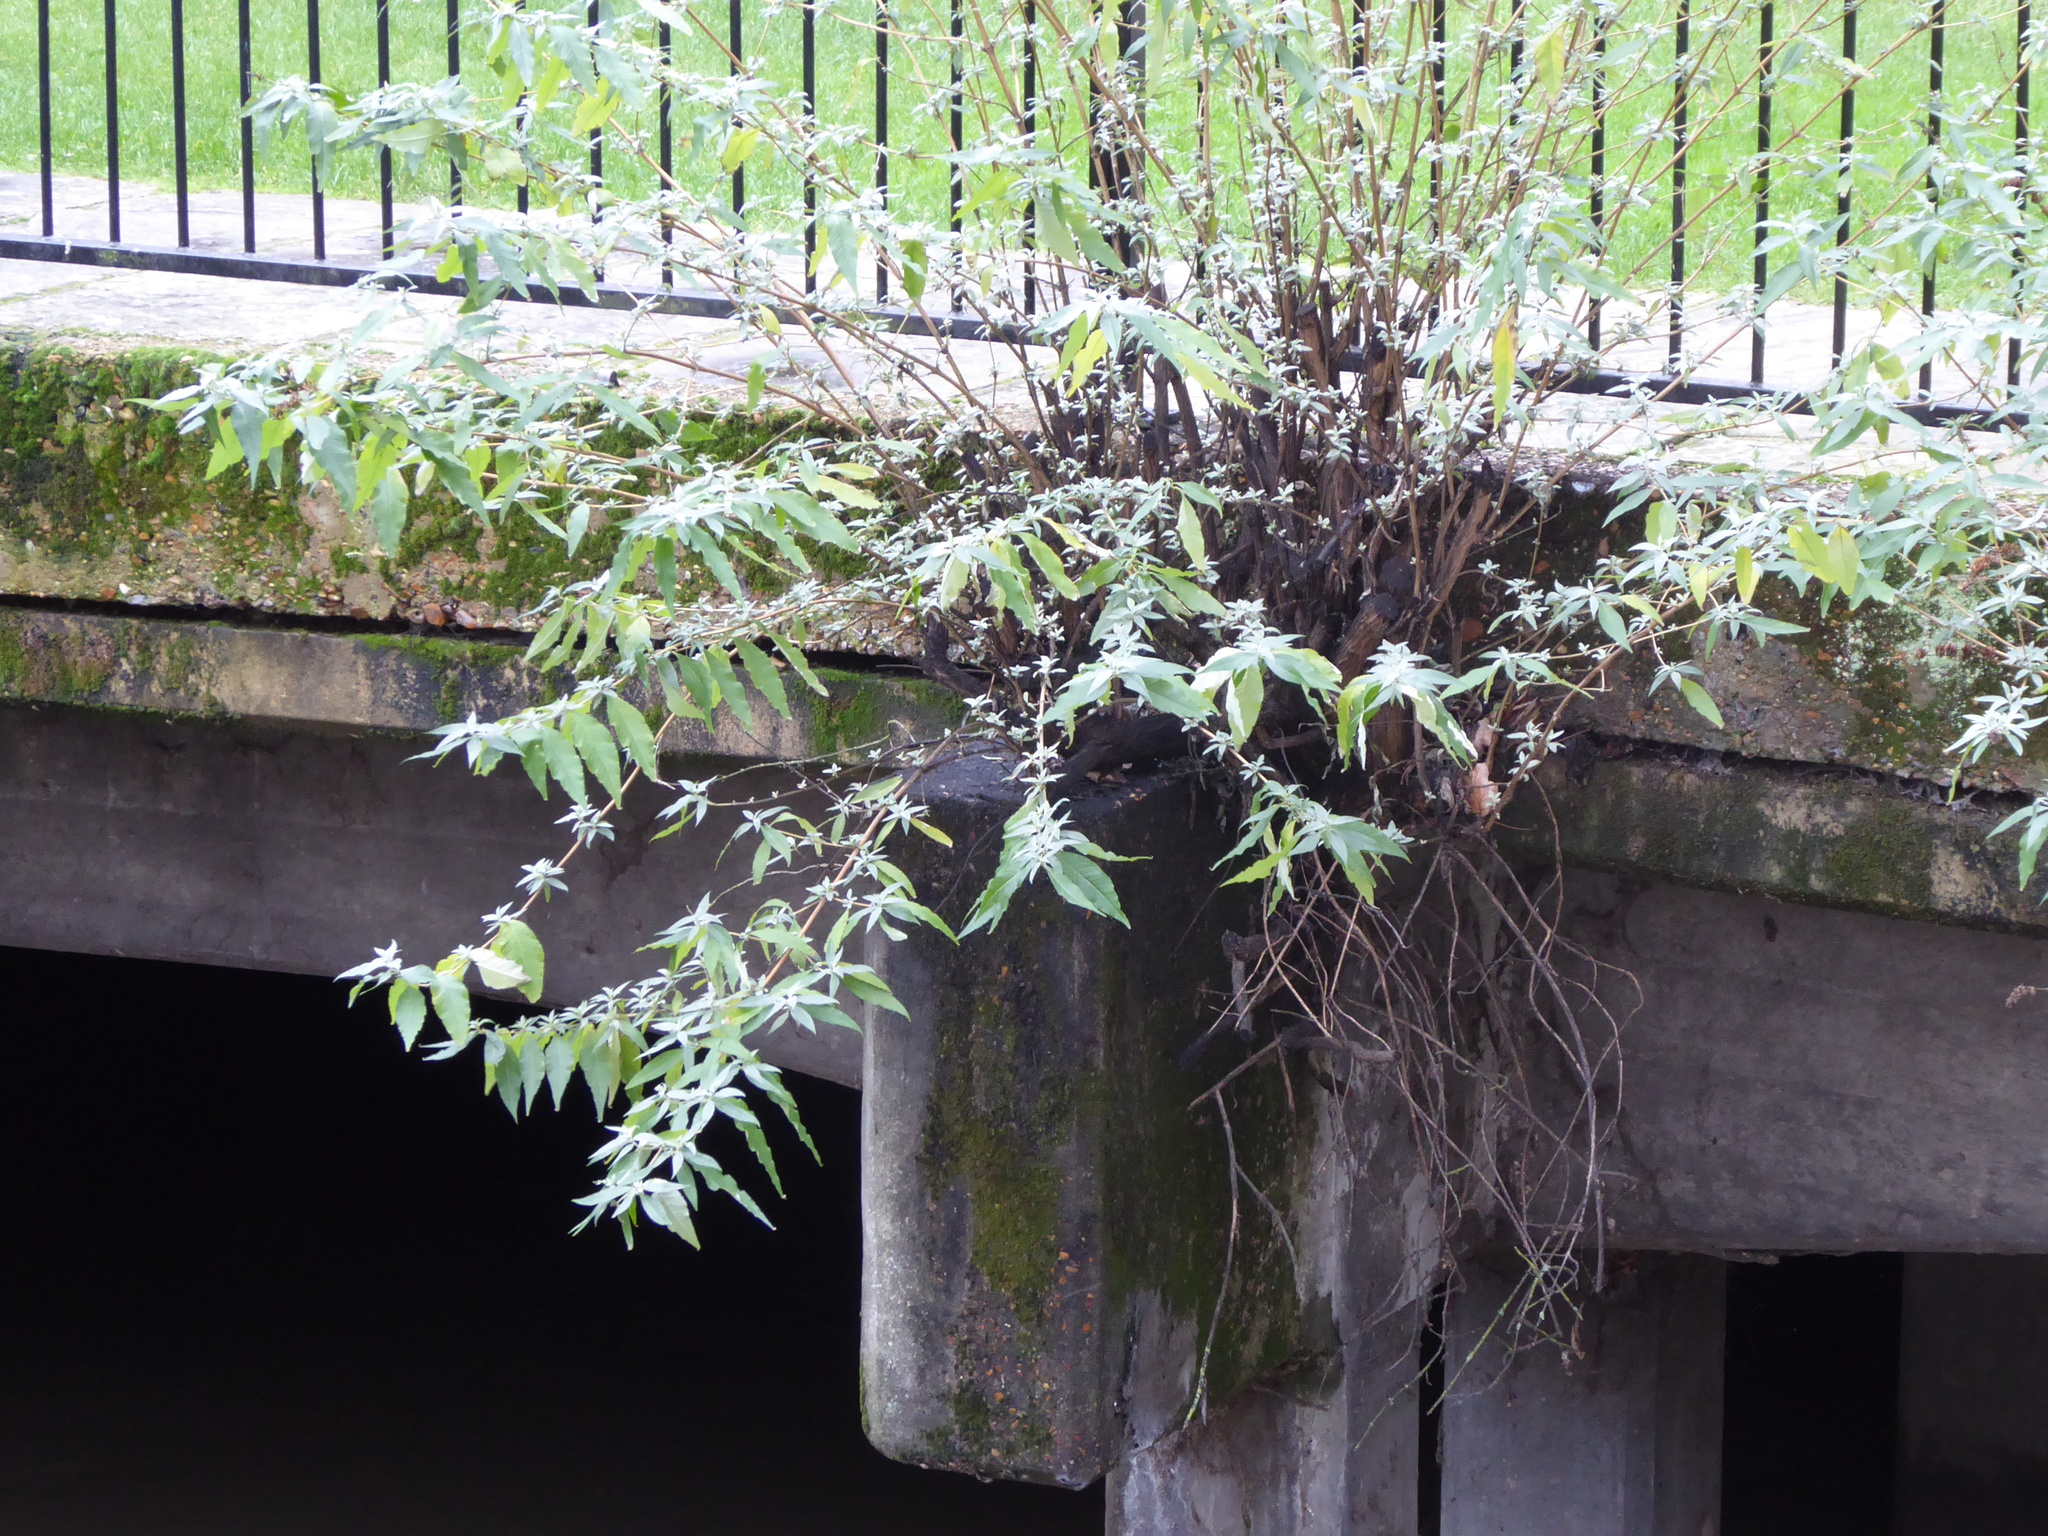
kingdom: Plantae
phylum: Tracheophyta
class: Magnoliopsida
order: Lamiales
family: Scrophulariaceae
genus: Buddleja
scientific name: Buddleja davidii
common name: Butterfly-bush
